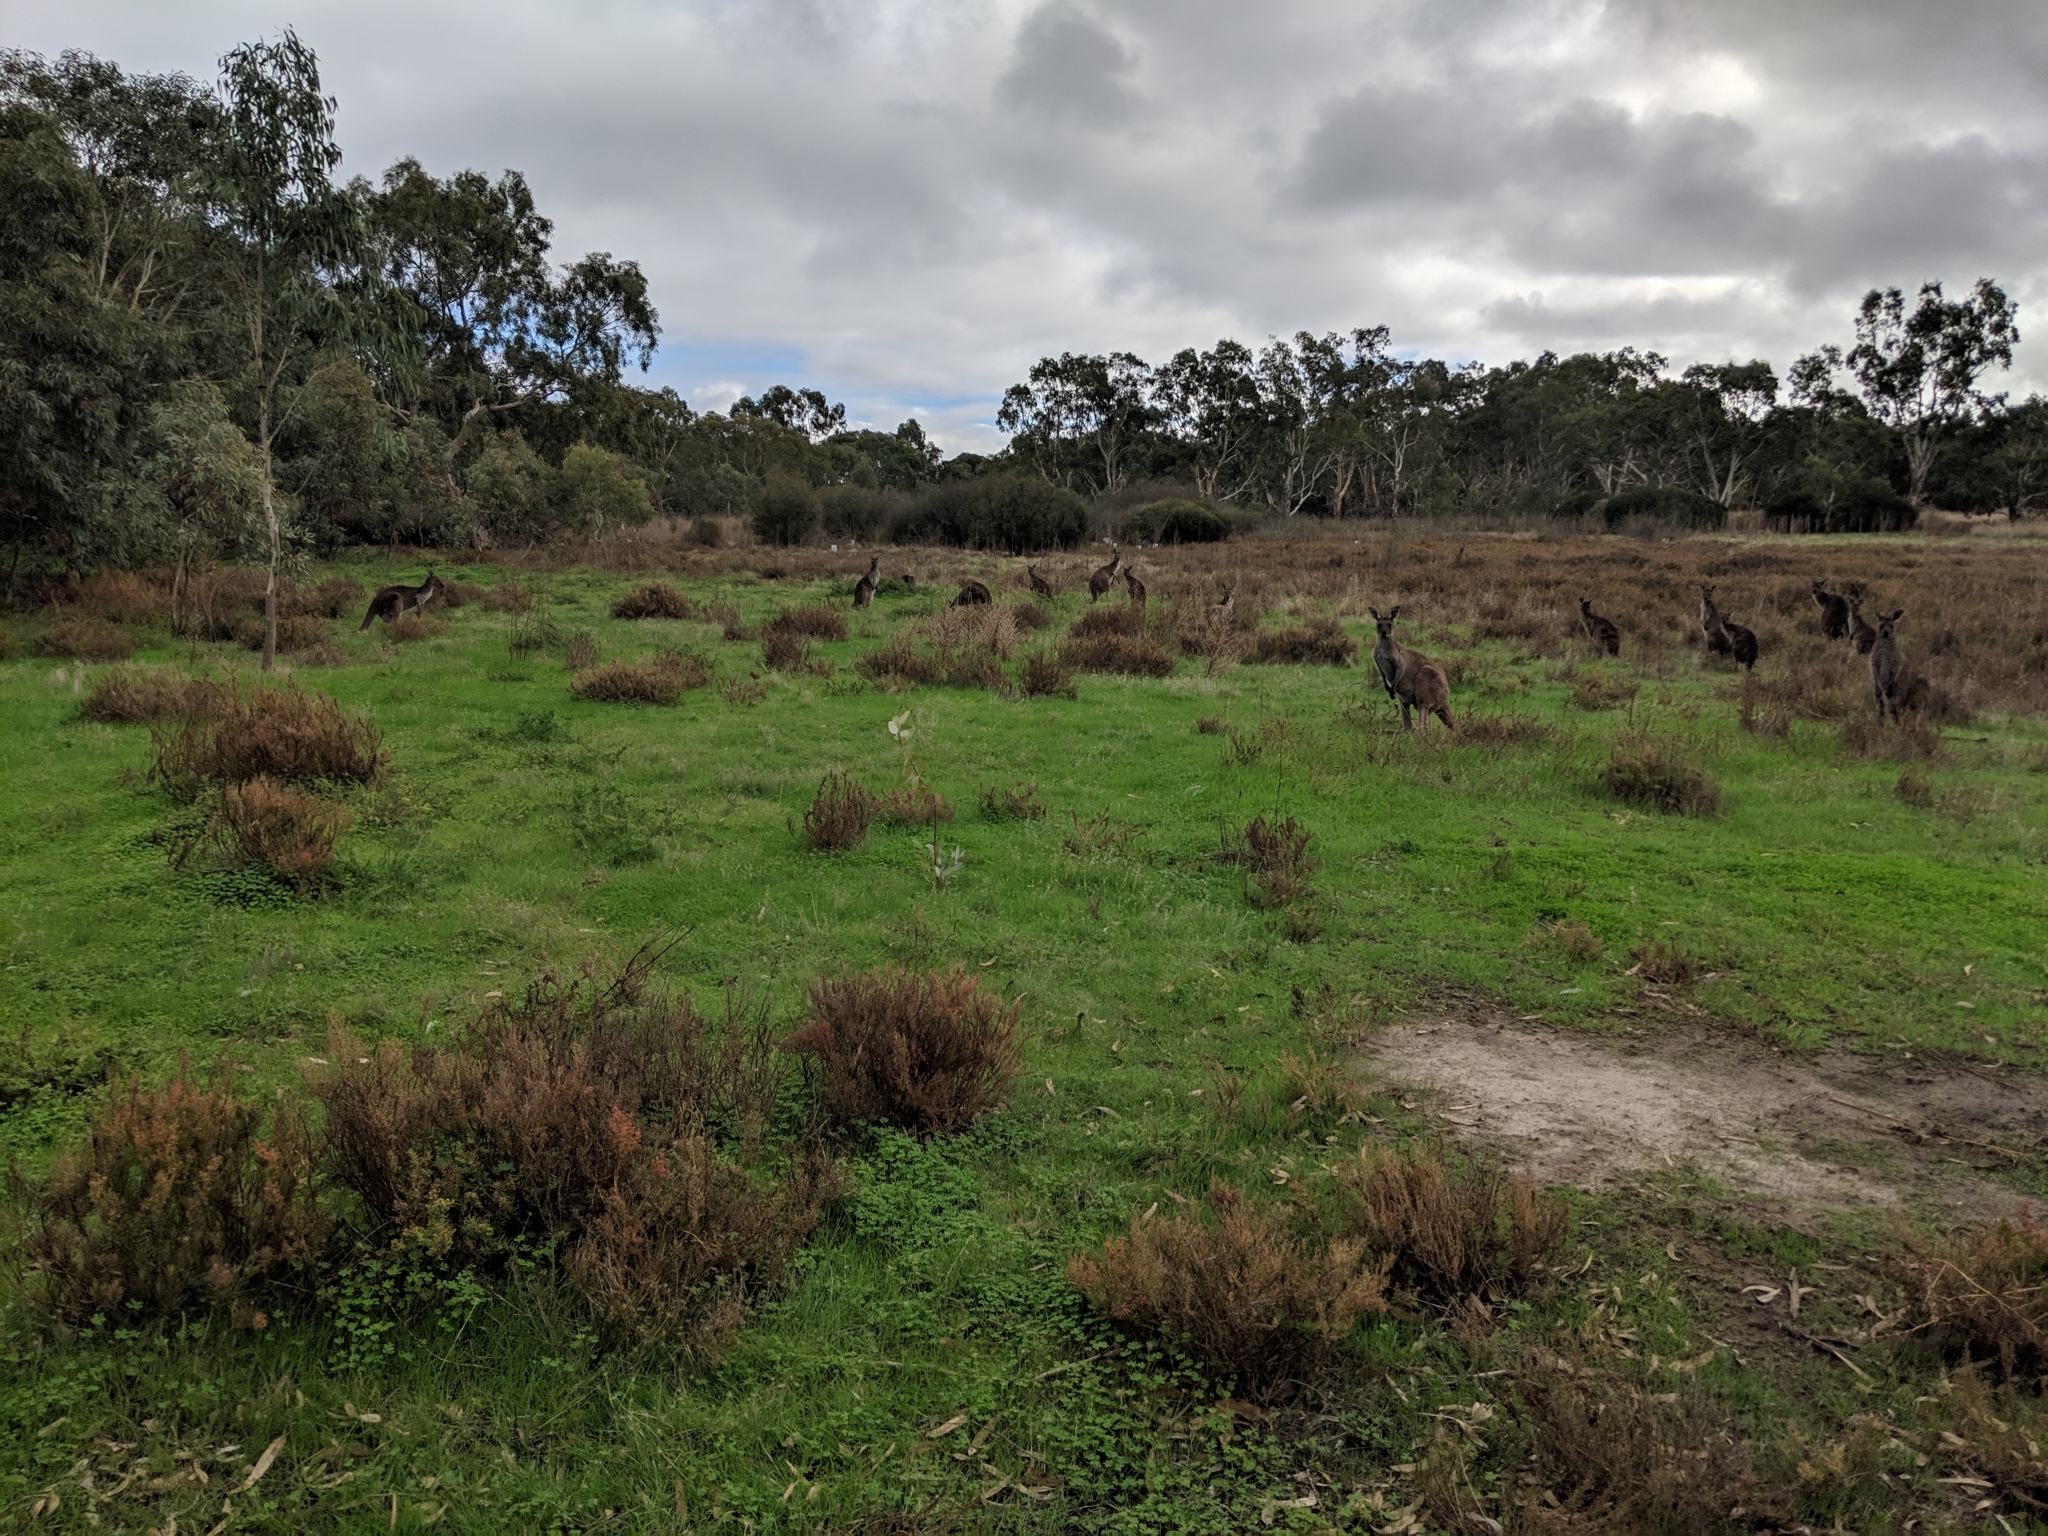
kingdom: Animalia
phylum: Chordata
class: Mammalia
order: Diprotodontia
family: Macropodidae
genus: Macropus
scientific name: Macropus fuliginosus
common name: Western grey kangaroo
